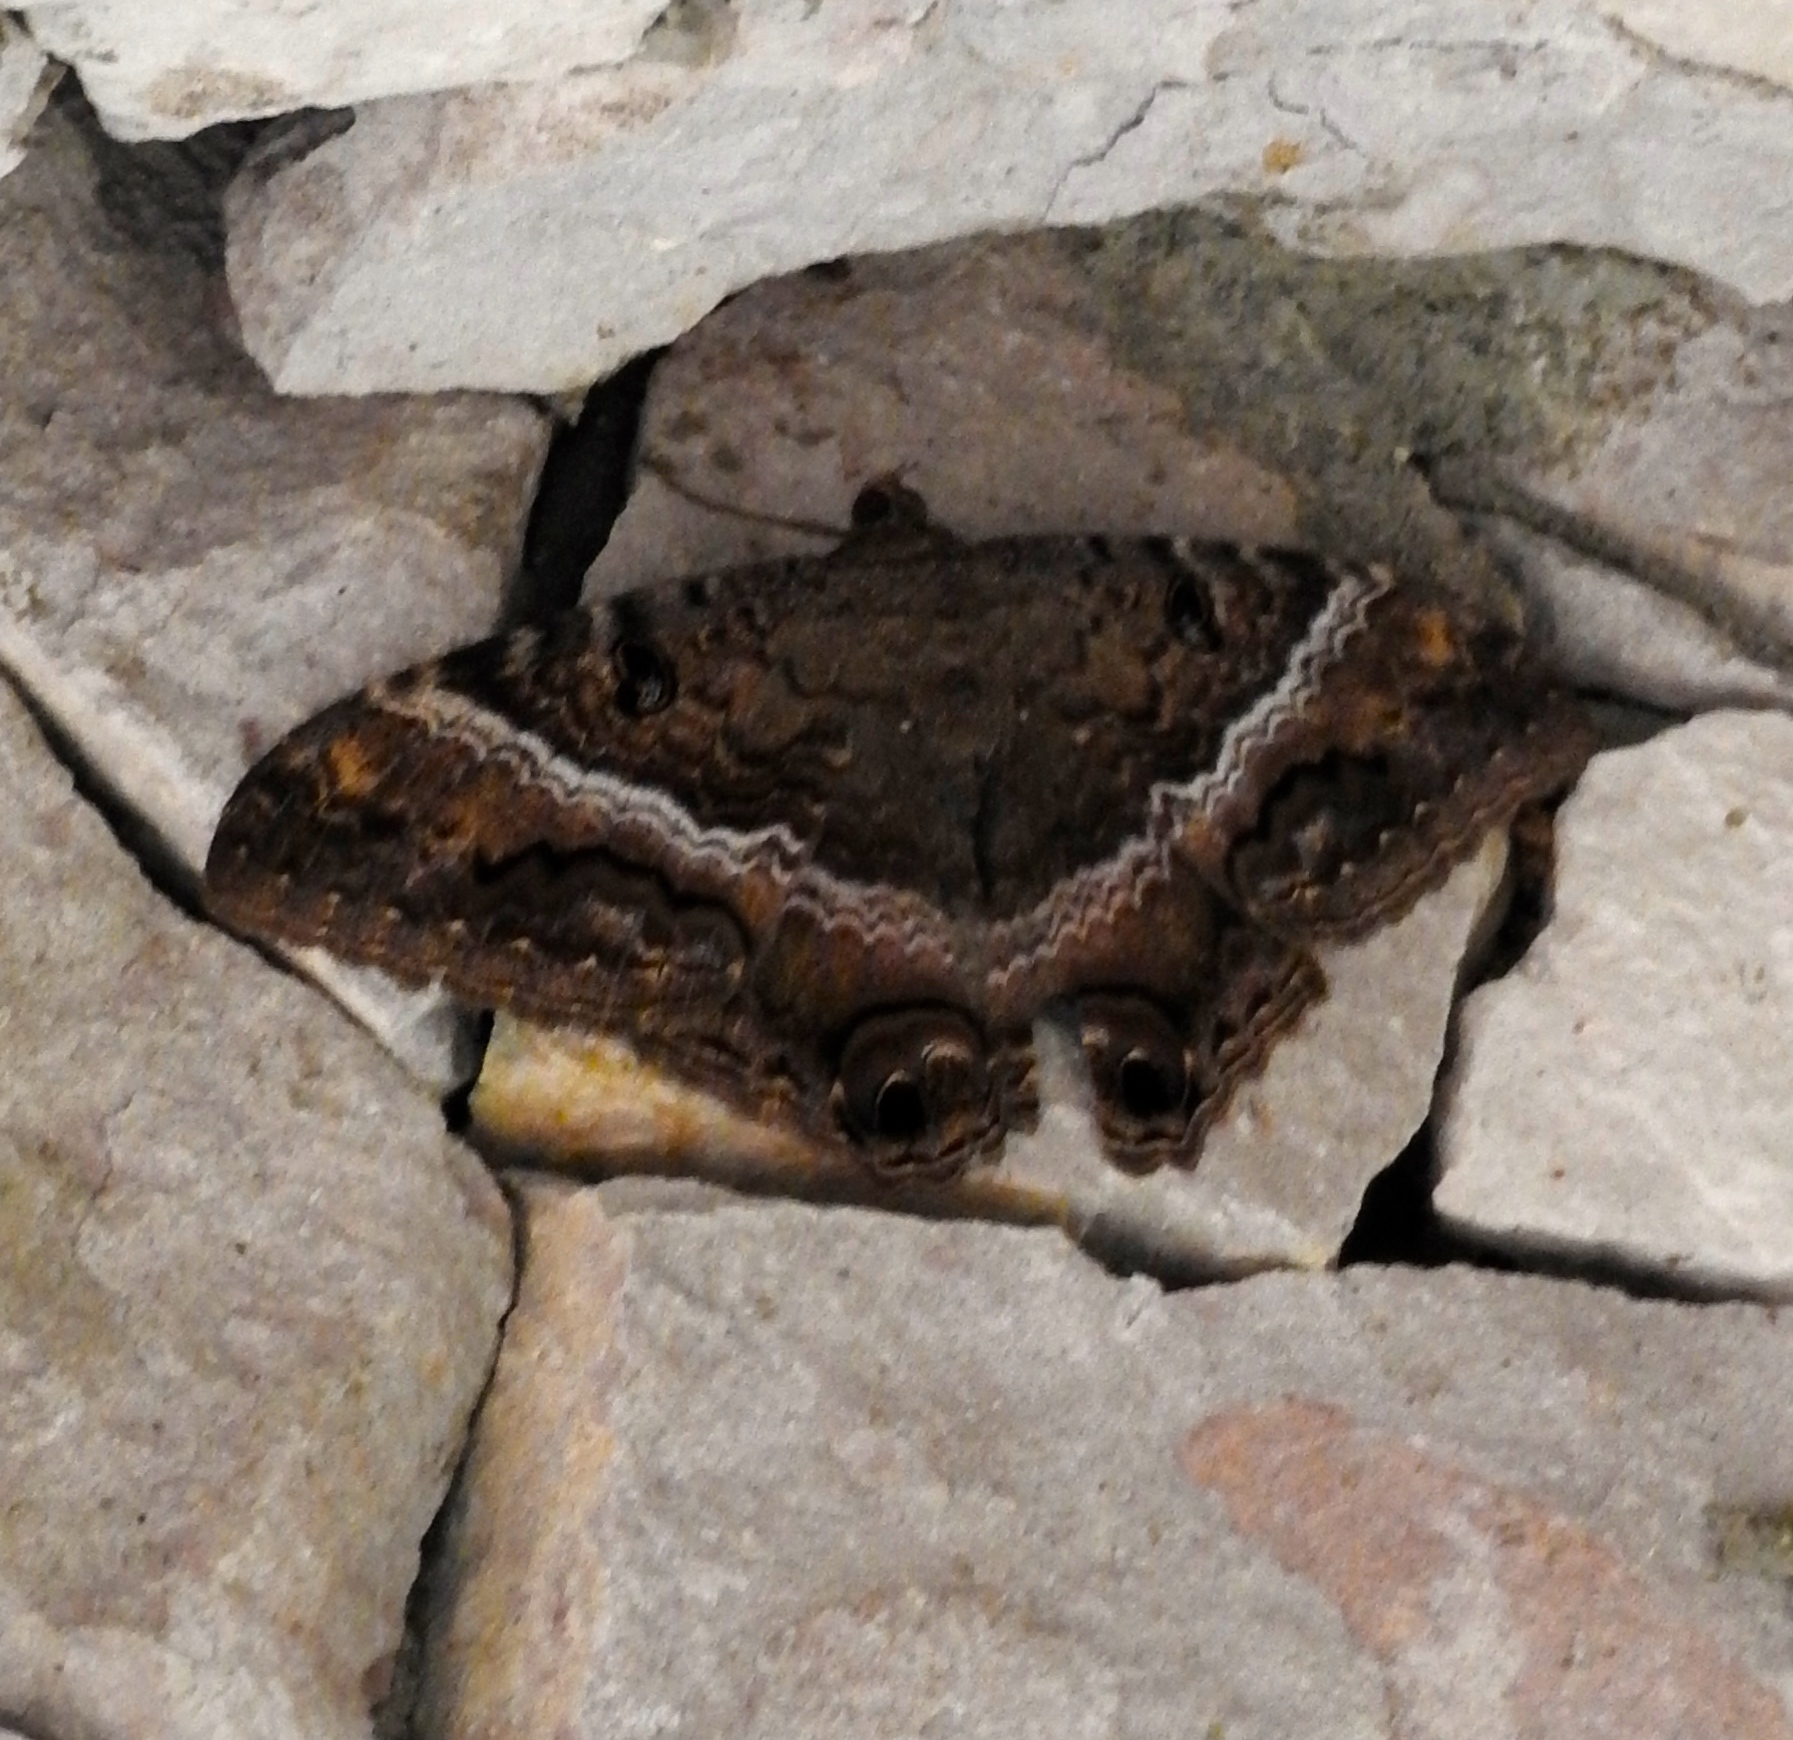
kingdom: Animalia
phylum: Arthropoda
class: Insecta
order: Lepidoptera
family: Erebidae
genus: Ascalapha
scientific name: Ascalapha odorata
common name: Black witch
